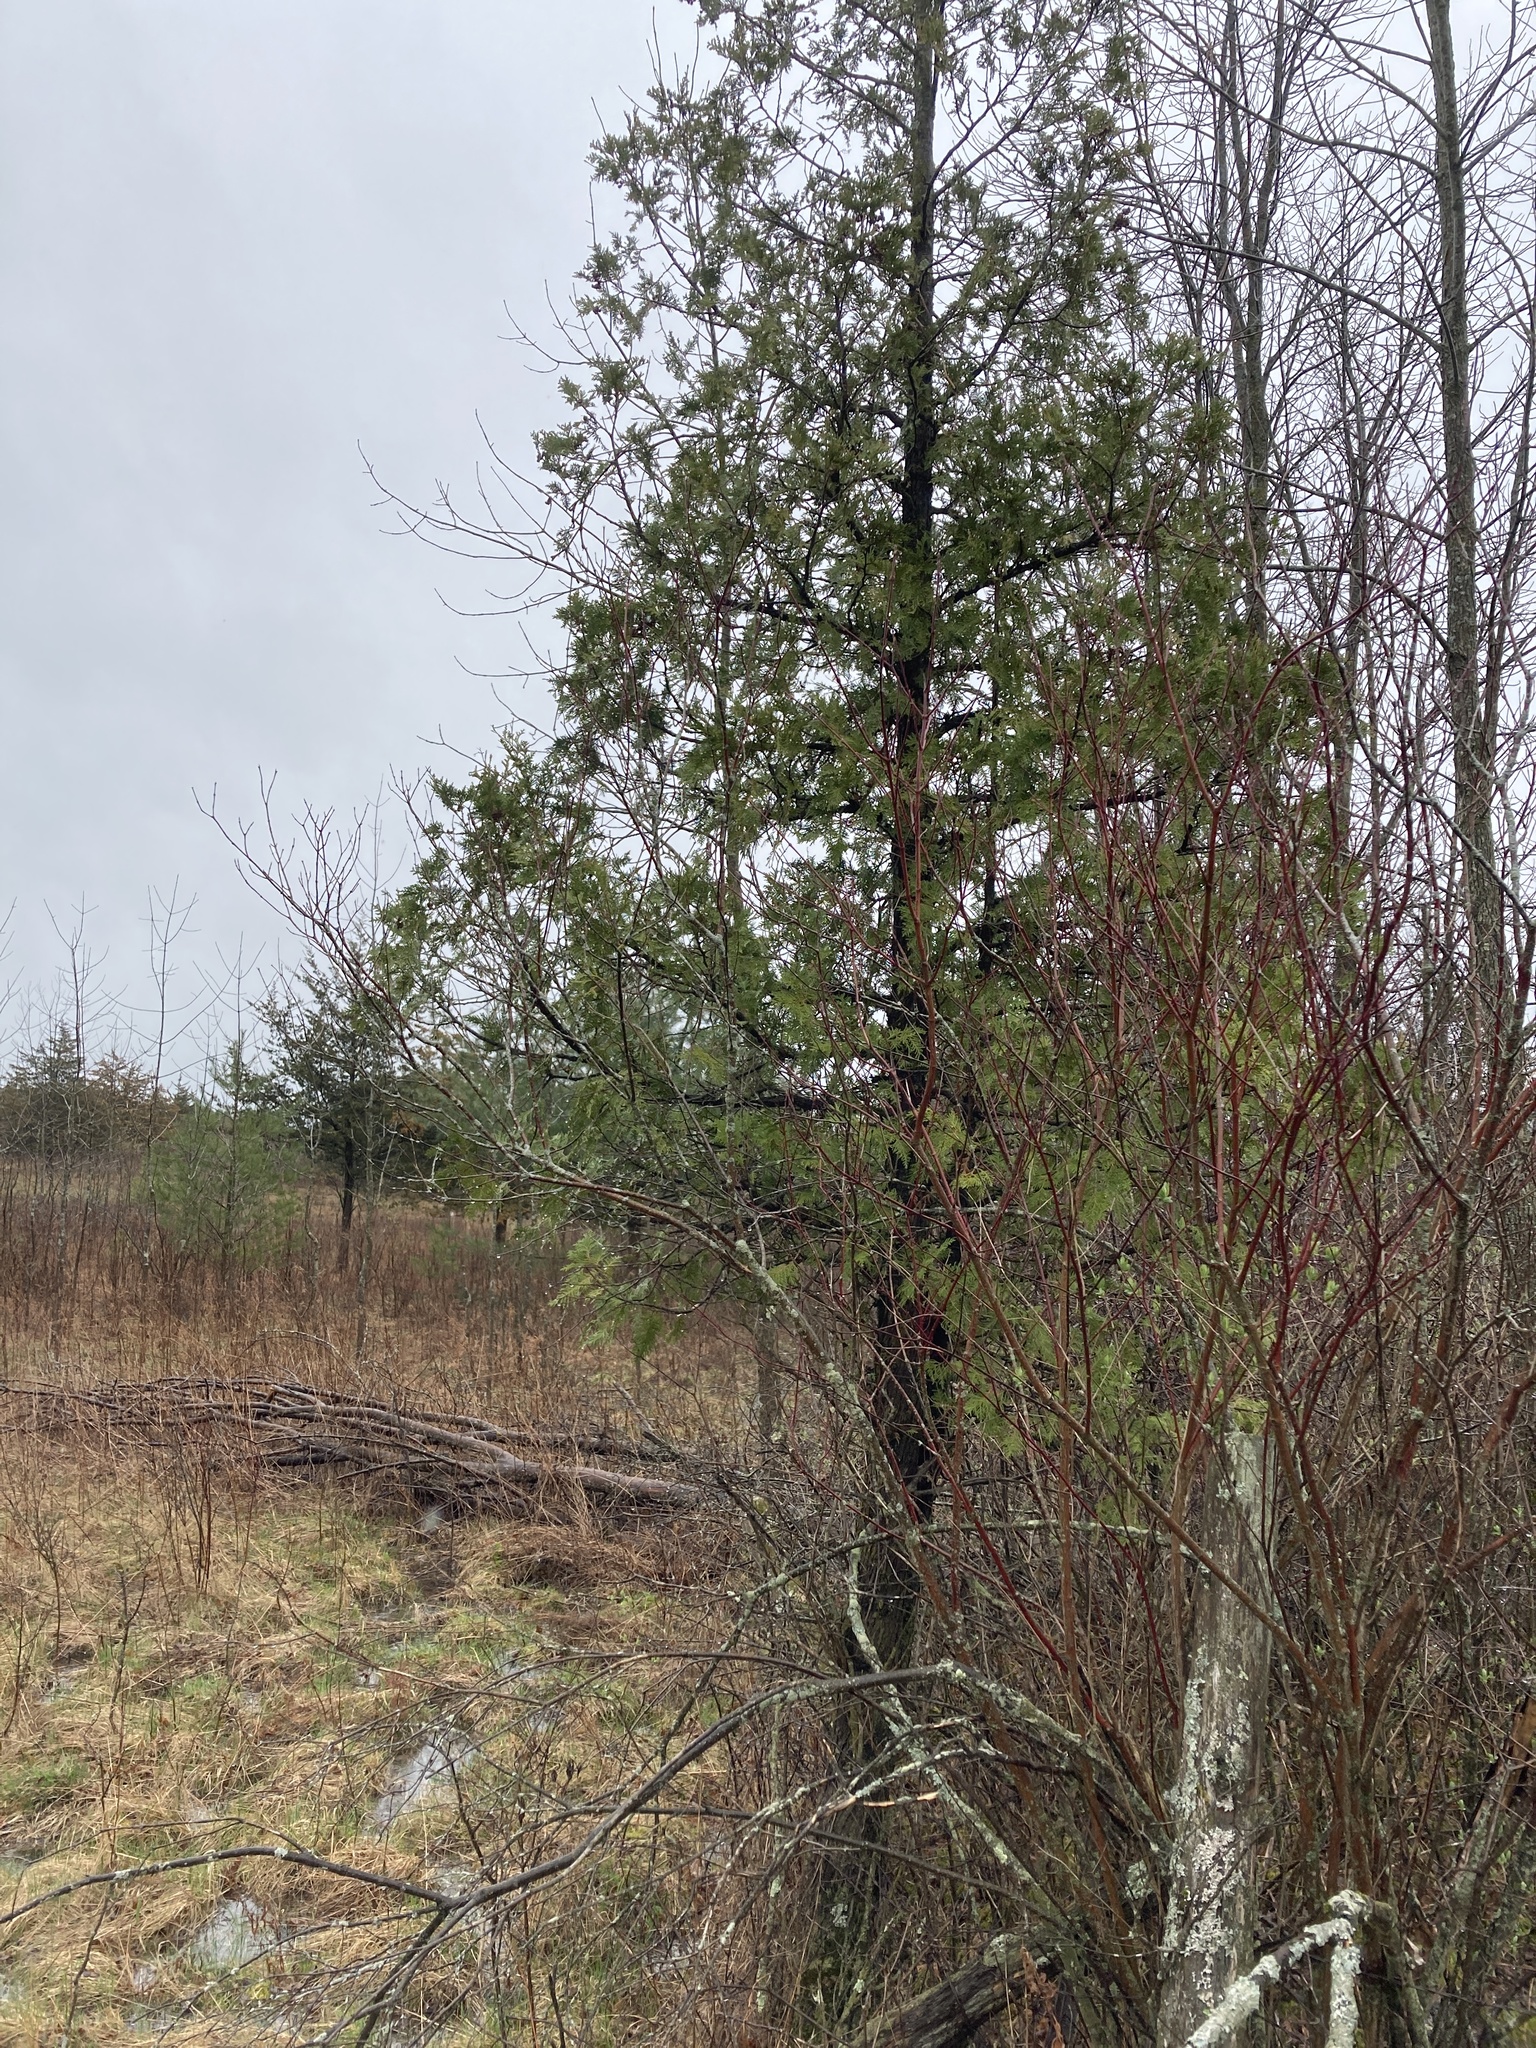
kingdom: Plantae
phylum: Tracheophyta
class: Pinopsida
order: Pinales
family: Cupressaceae
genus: Thuja
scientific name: Thuja occidentalis
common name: Northern white-cedar
